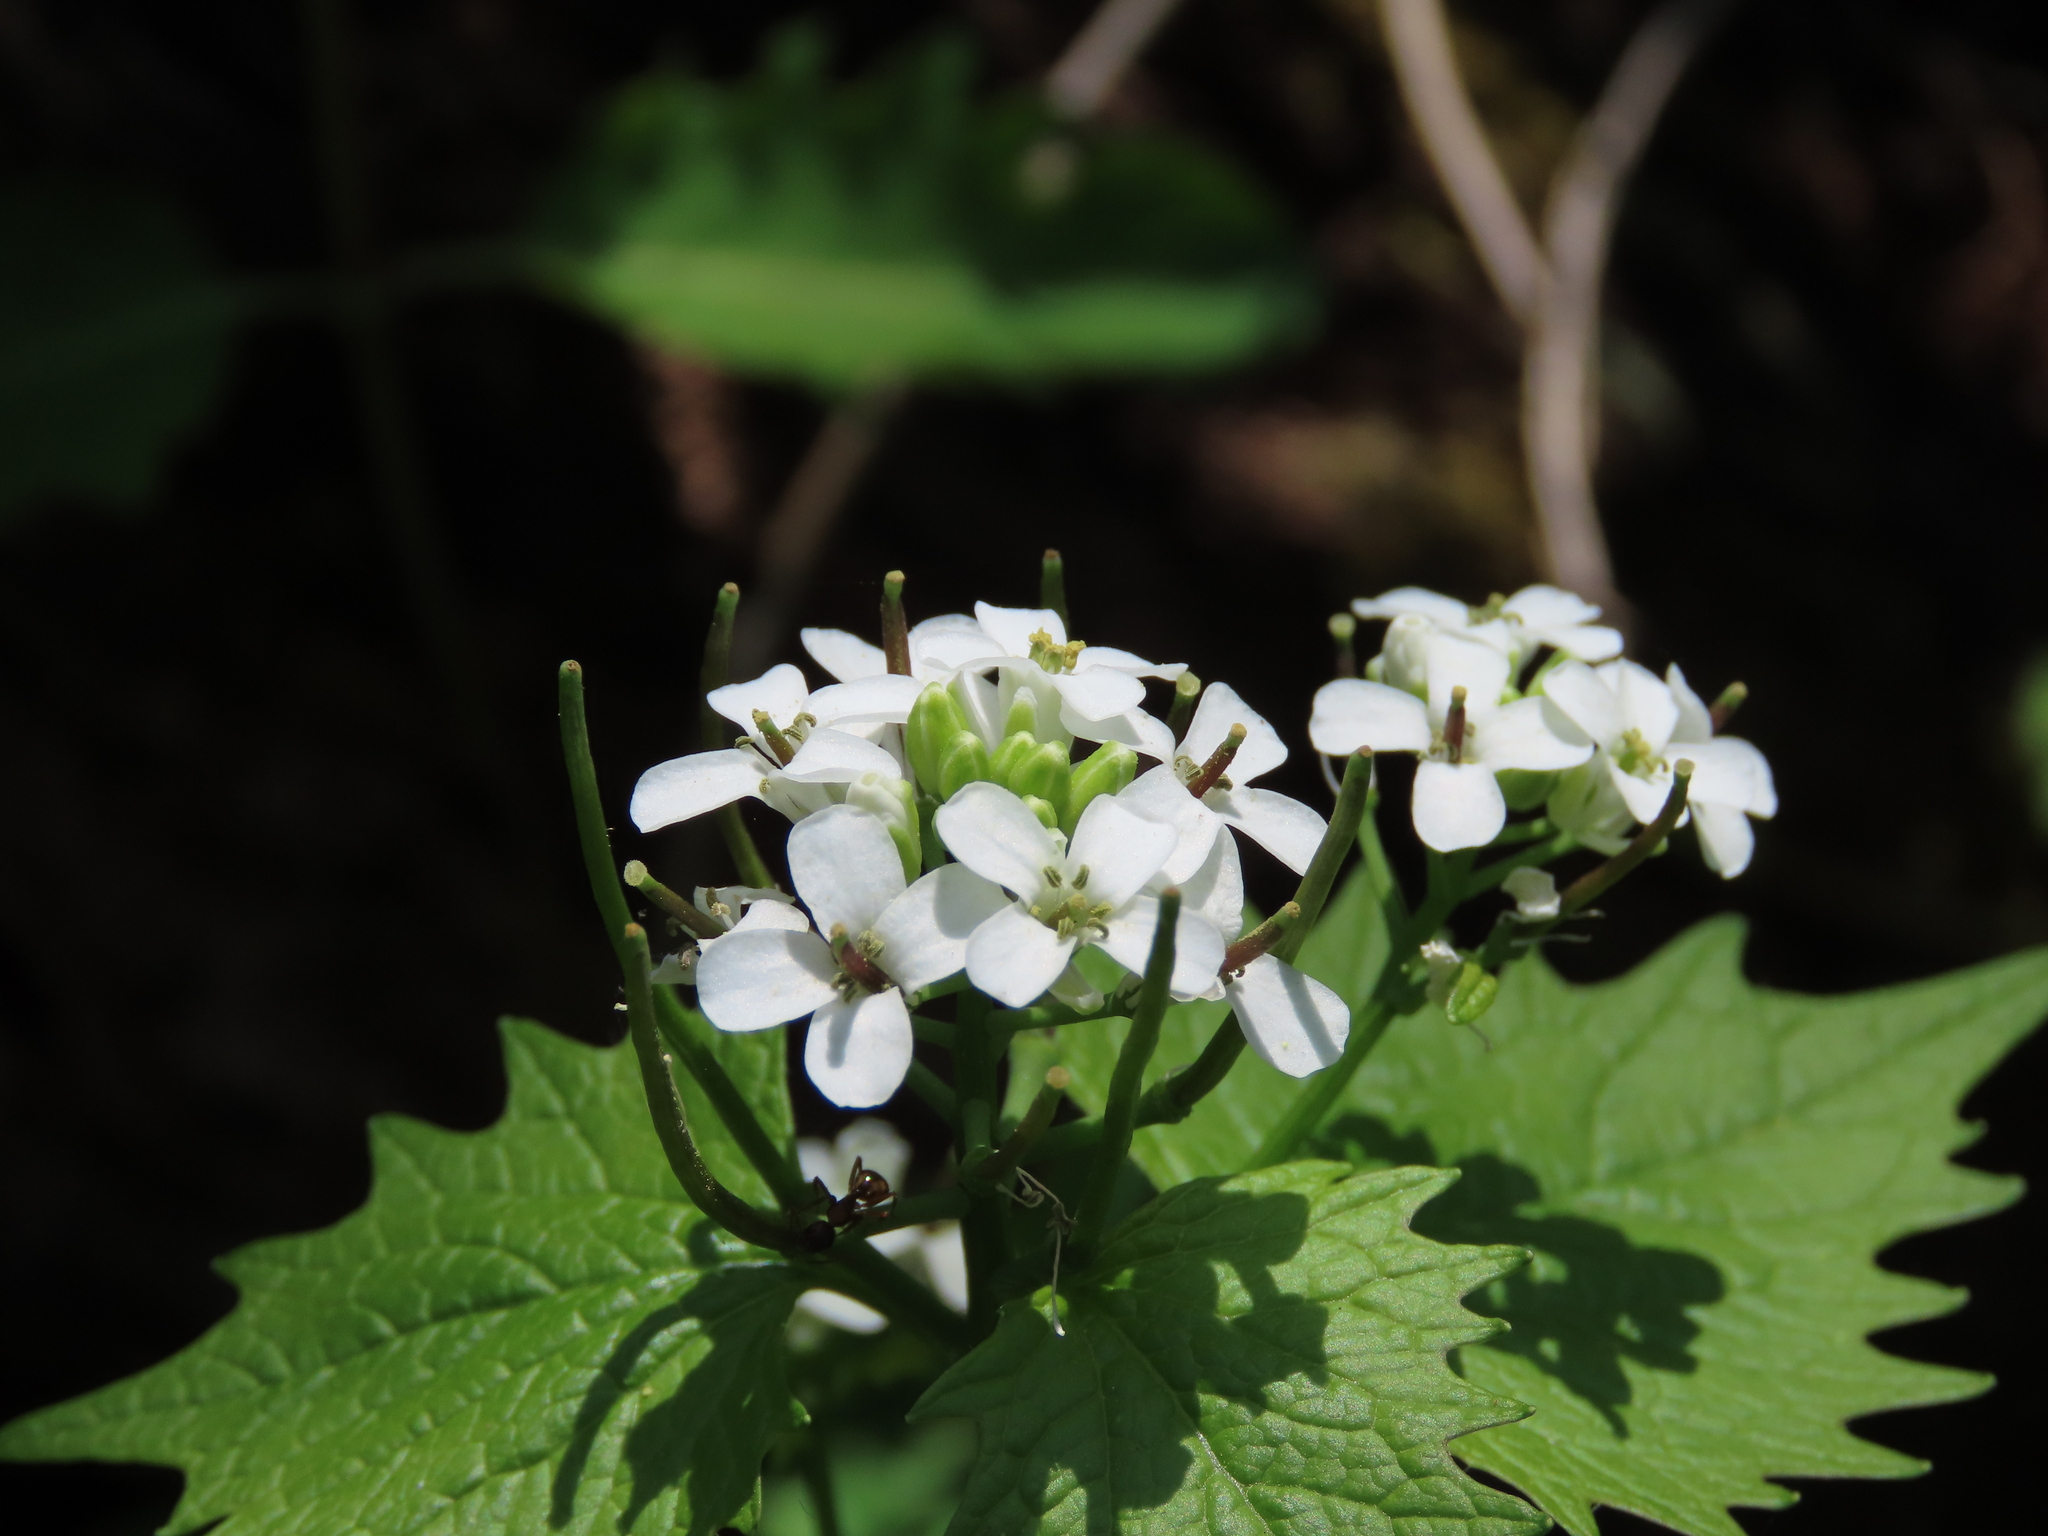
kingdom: Plantae
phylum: Tracheophyta
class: Magnoliopsida
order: Brassicales
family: Brassicaceae
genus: Alliaria
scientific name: Alliaria petiolata
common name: Garlic mustard
